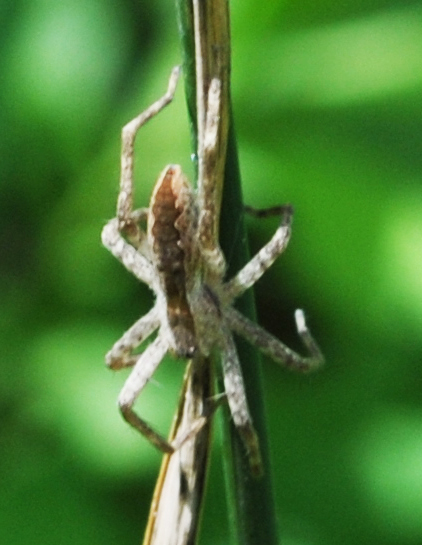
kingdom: Animalia
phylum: Arthropoda
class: Arachnida
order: Araneae
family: Pisauridae
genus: Pisaurina
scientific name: Pisaurina mira
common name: American nursery web spider
